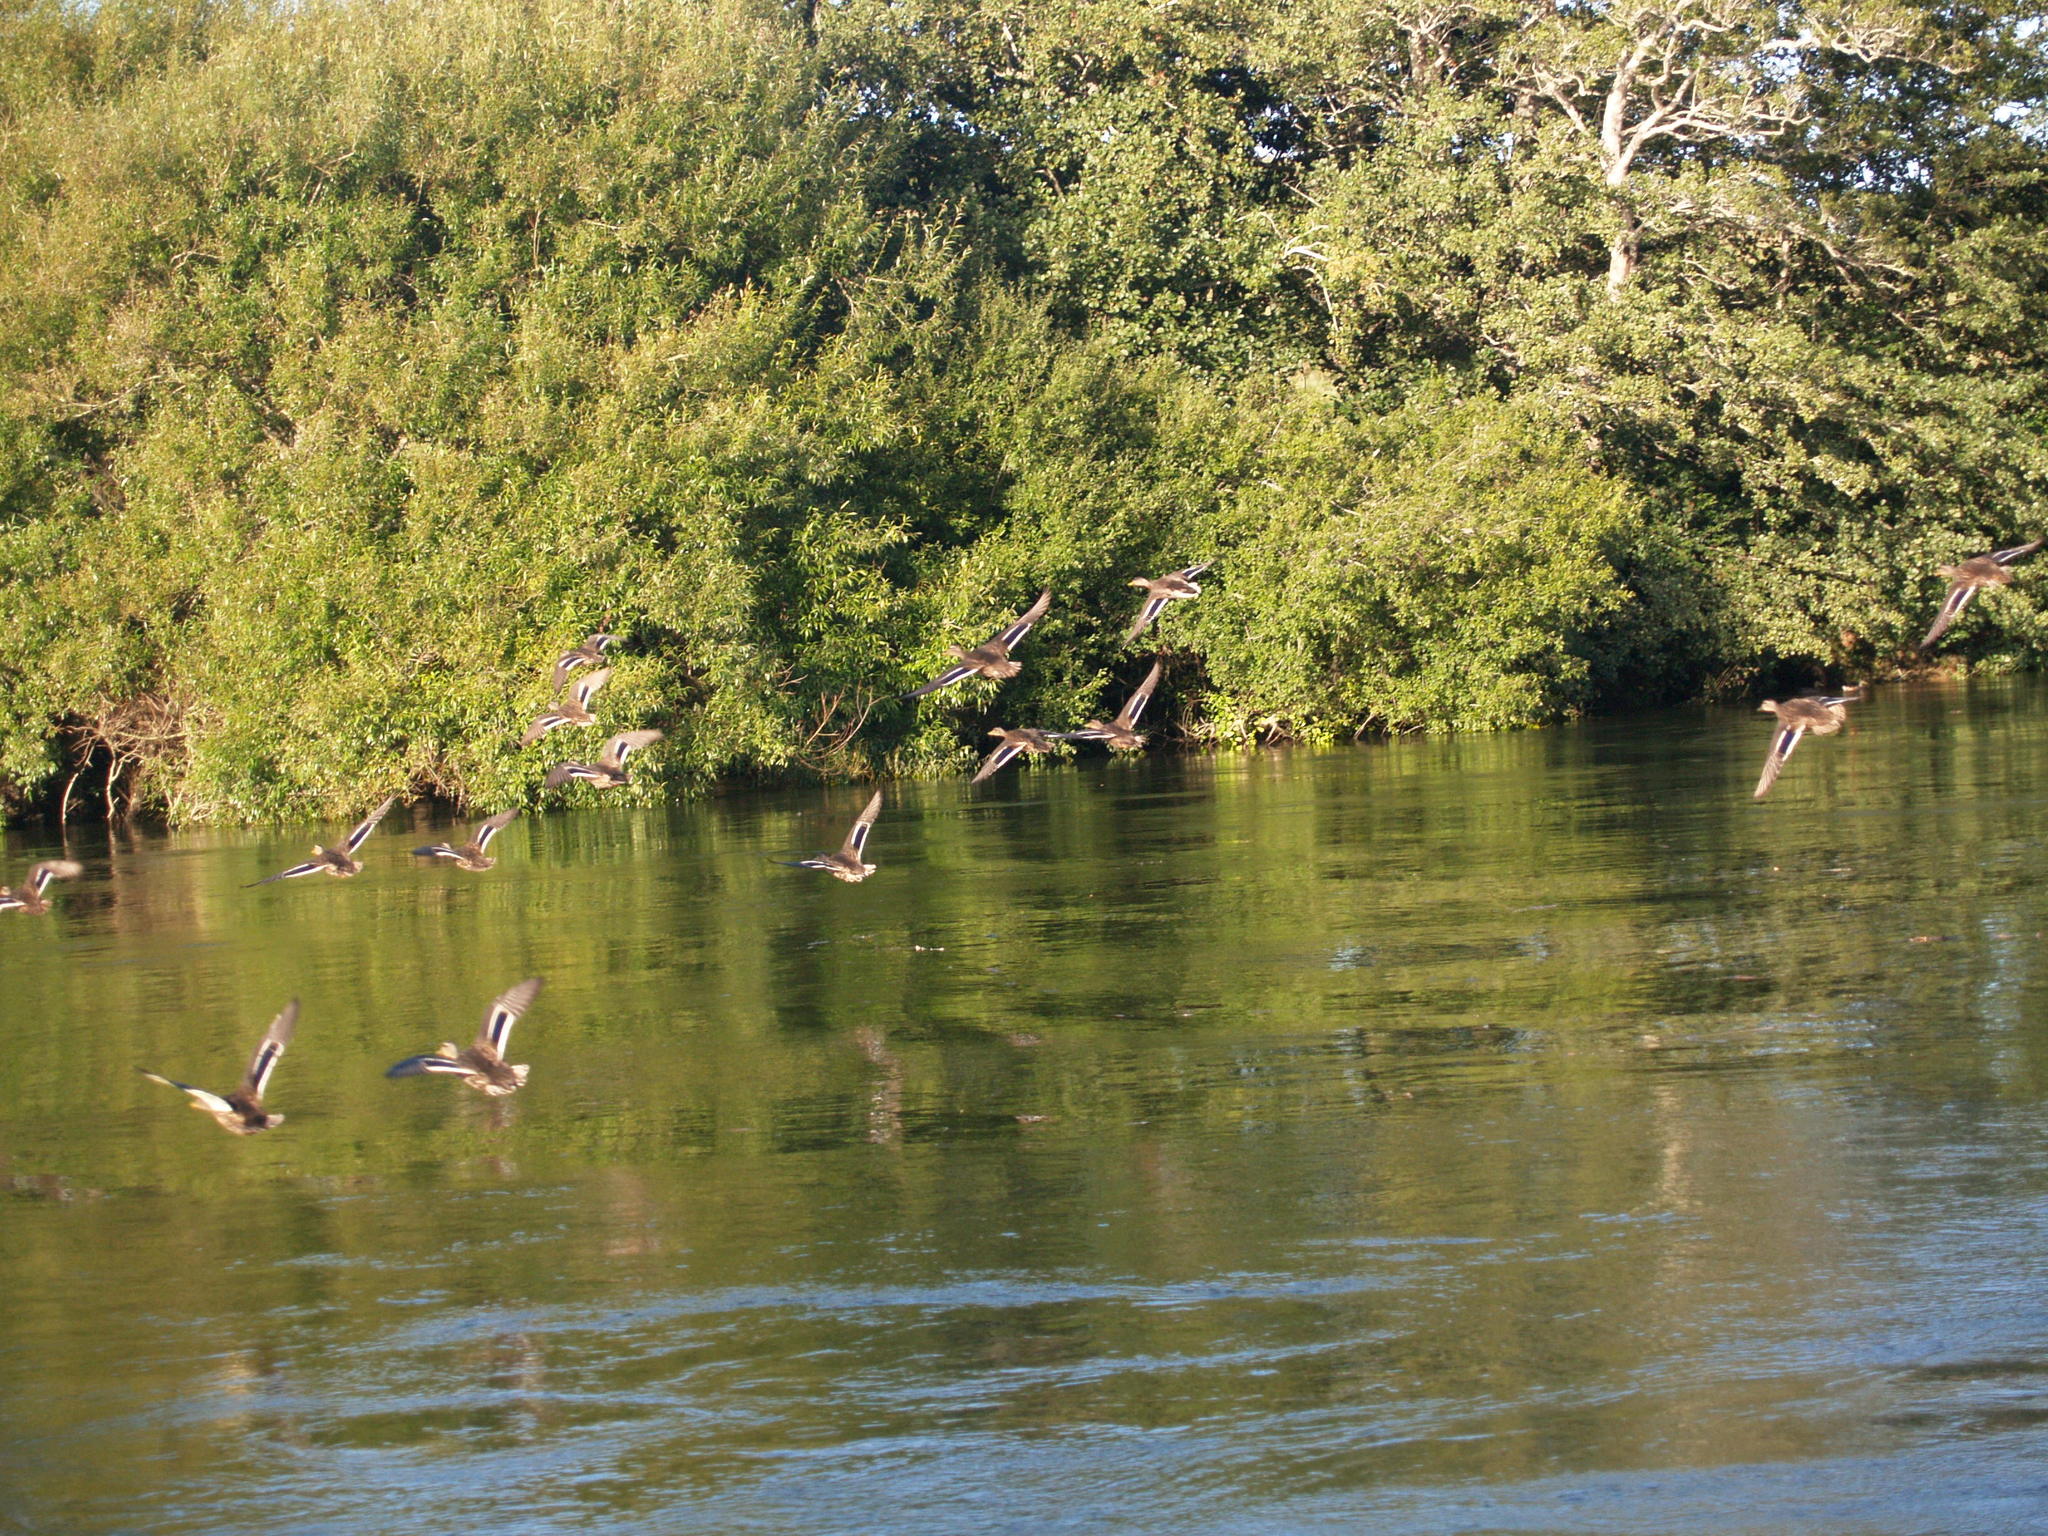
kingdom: Animalia
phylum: Chordata
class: Aves
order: Anseriformes
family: Anatidae
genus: Anas
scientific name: Anas platyrhynchos
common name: Mallard
